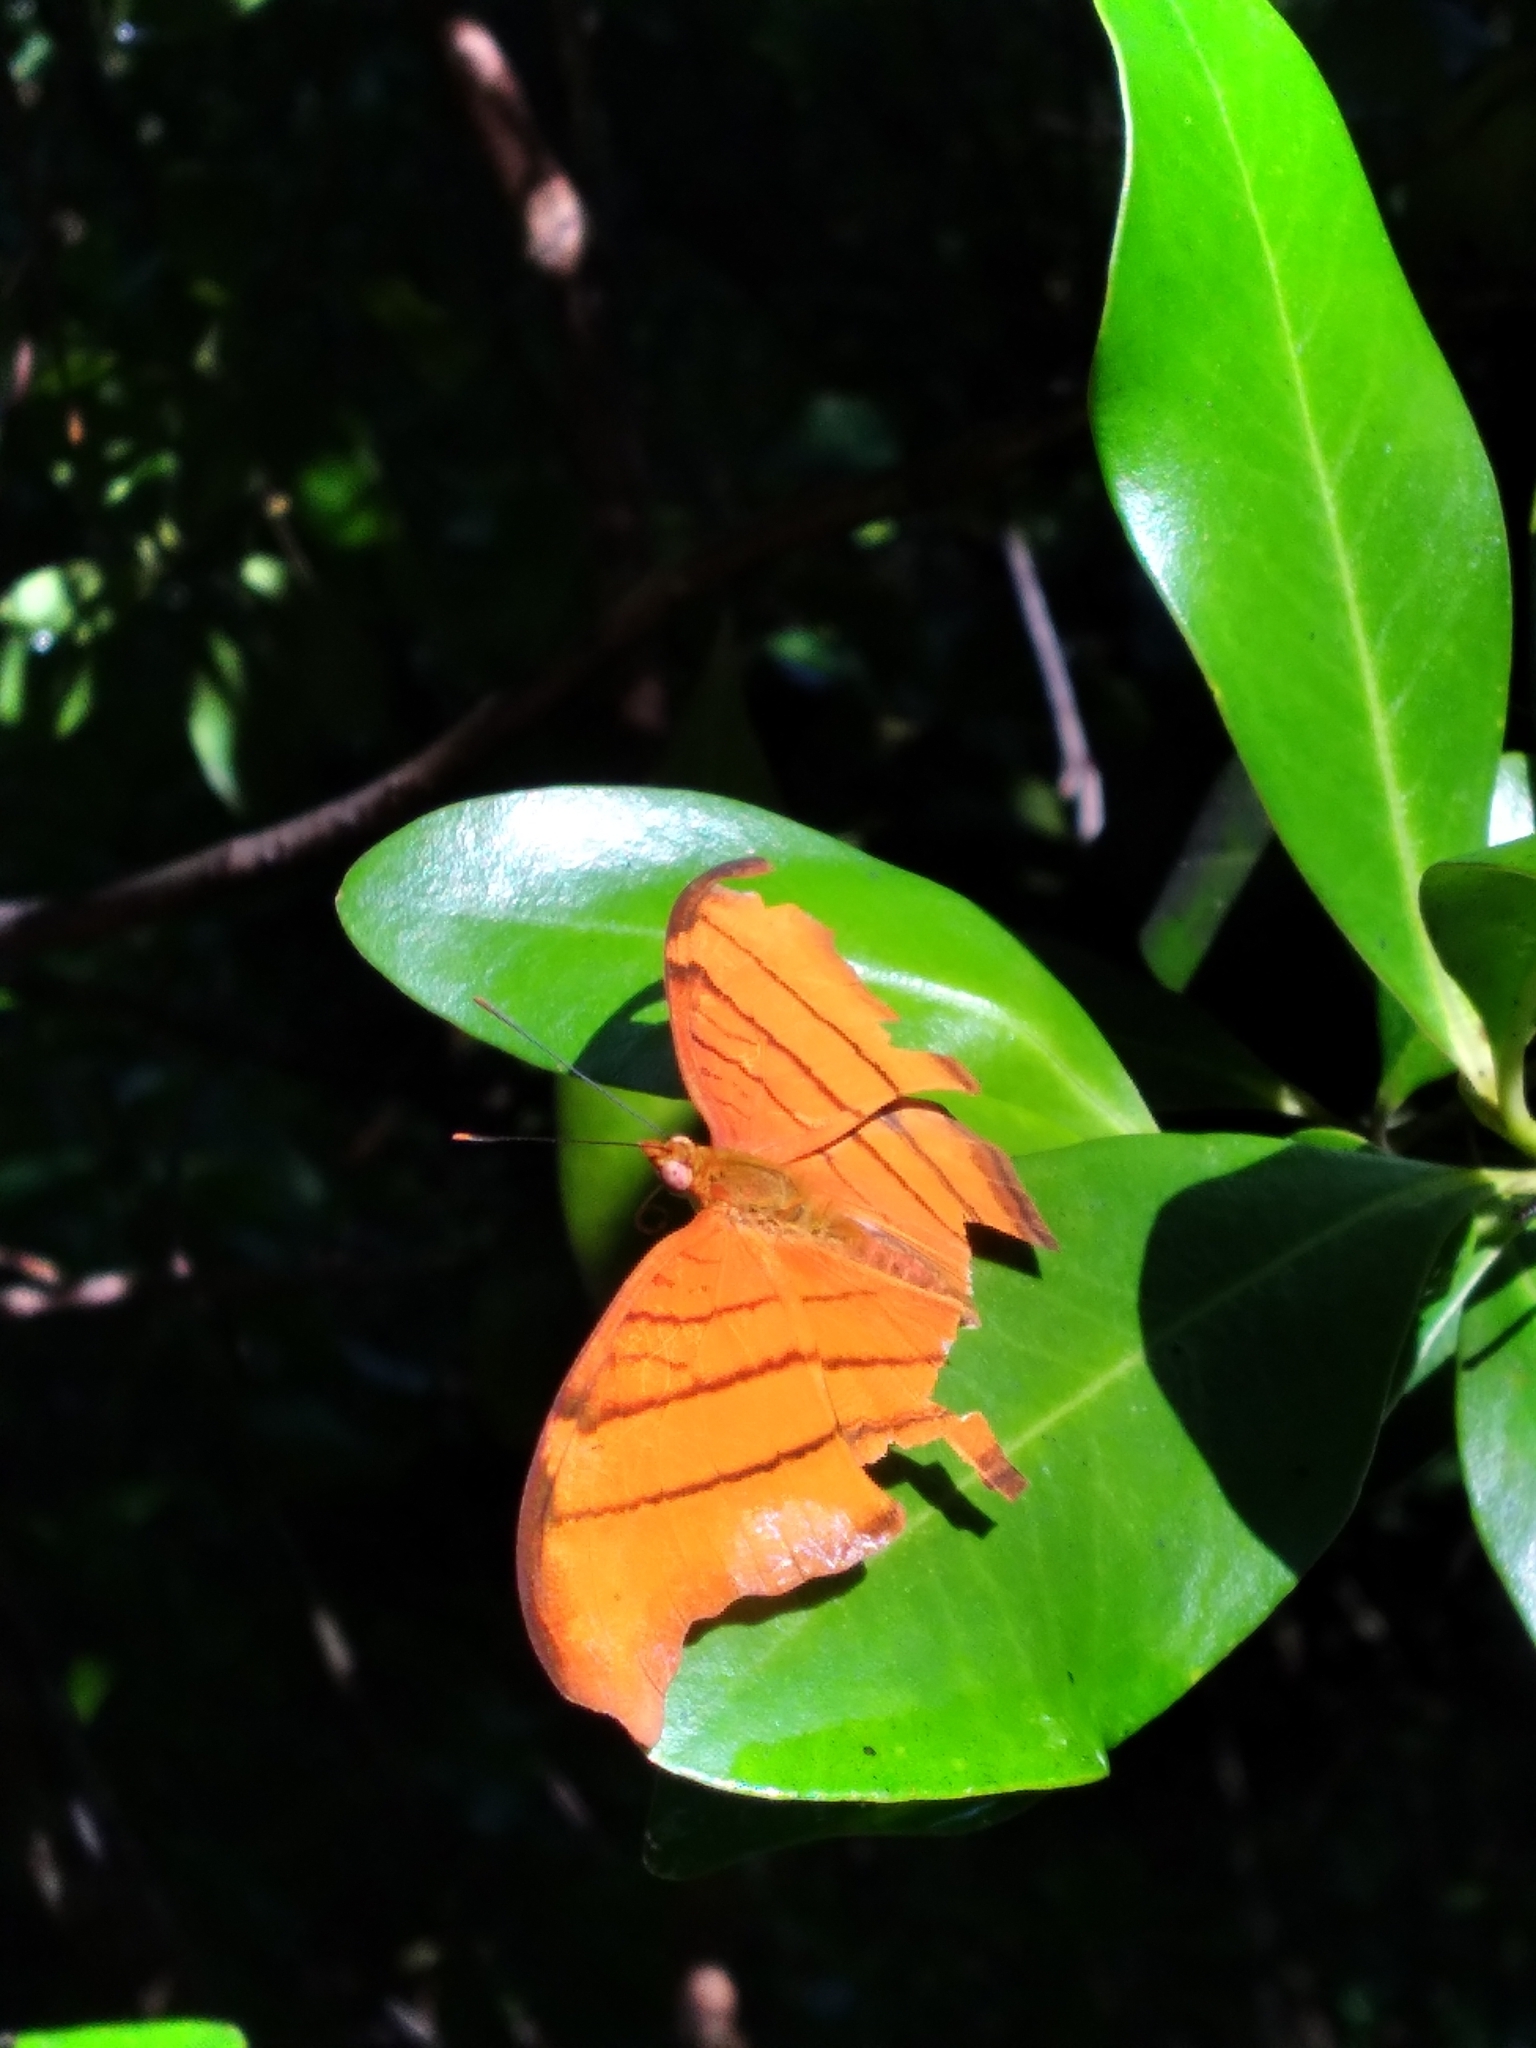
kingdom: Animalia
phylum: Arthropoda
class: Insecta
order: Lepidoptera
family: Nymphalidae
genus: Marpesia
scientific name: Marpesia petreus
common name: Red dagger wing
